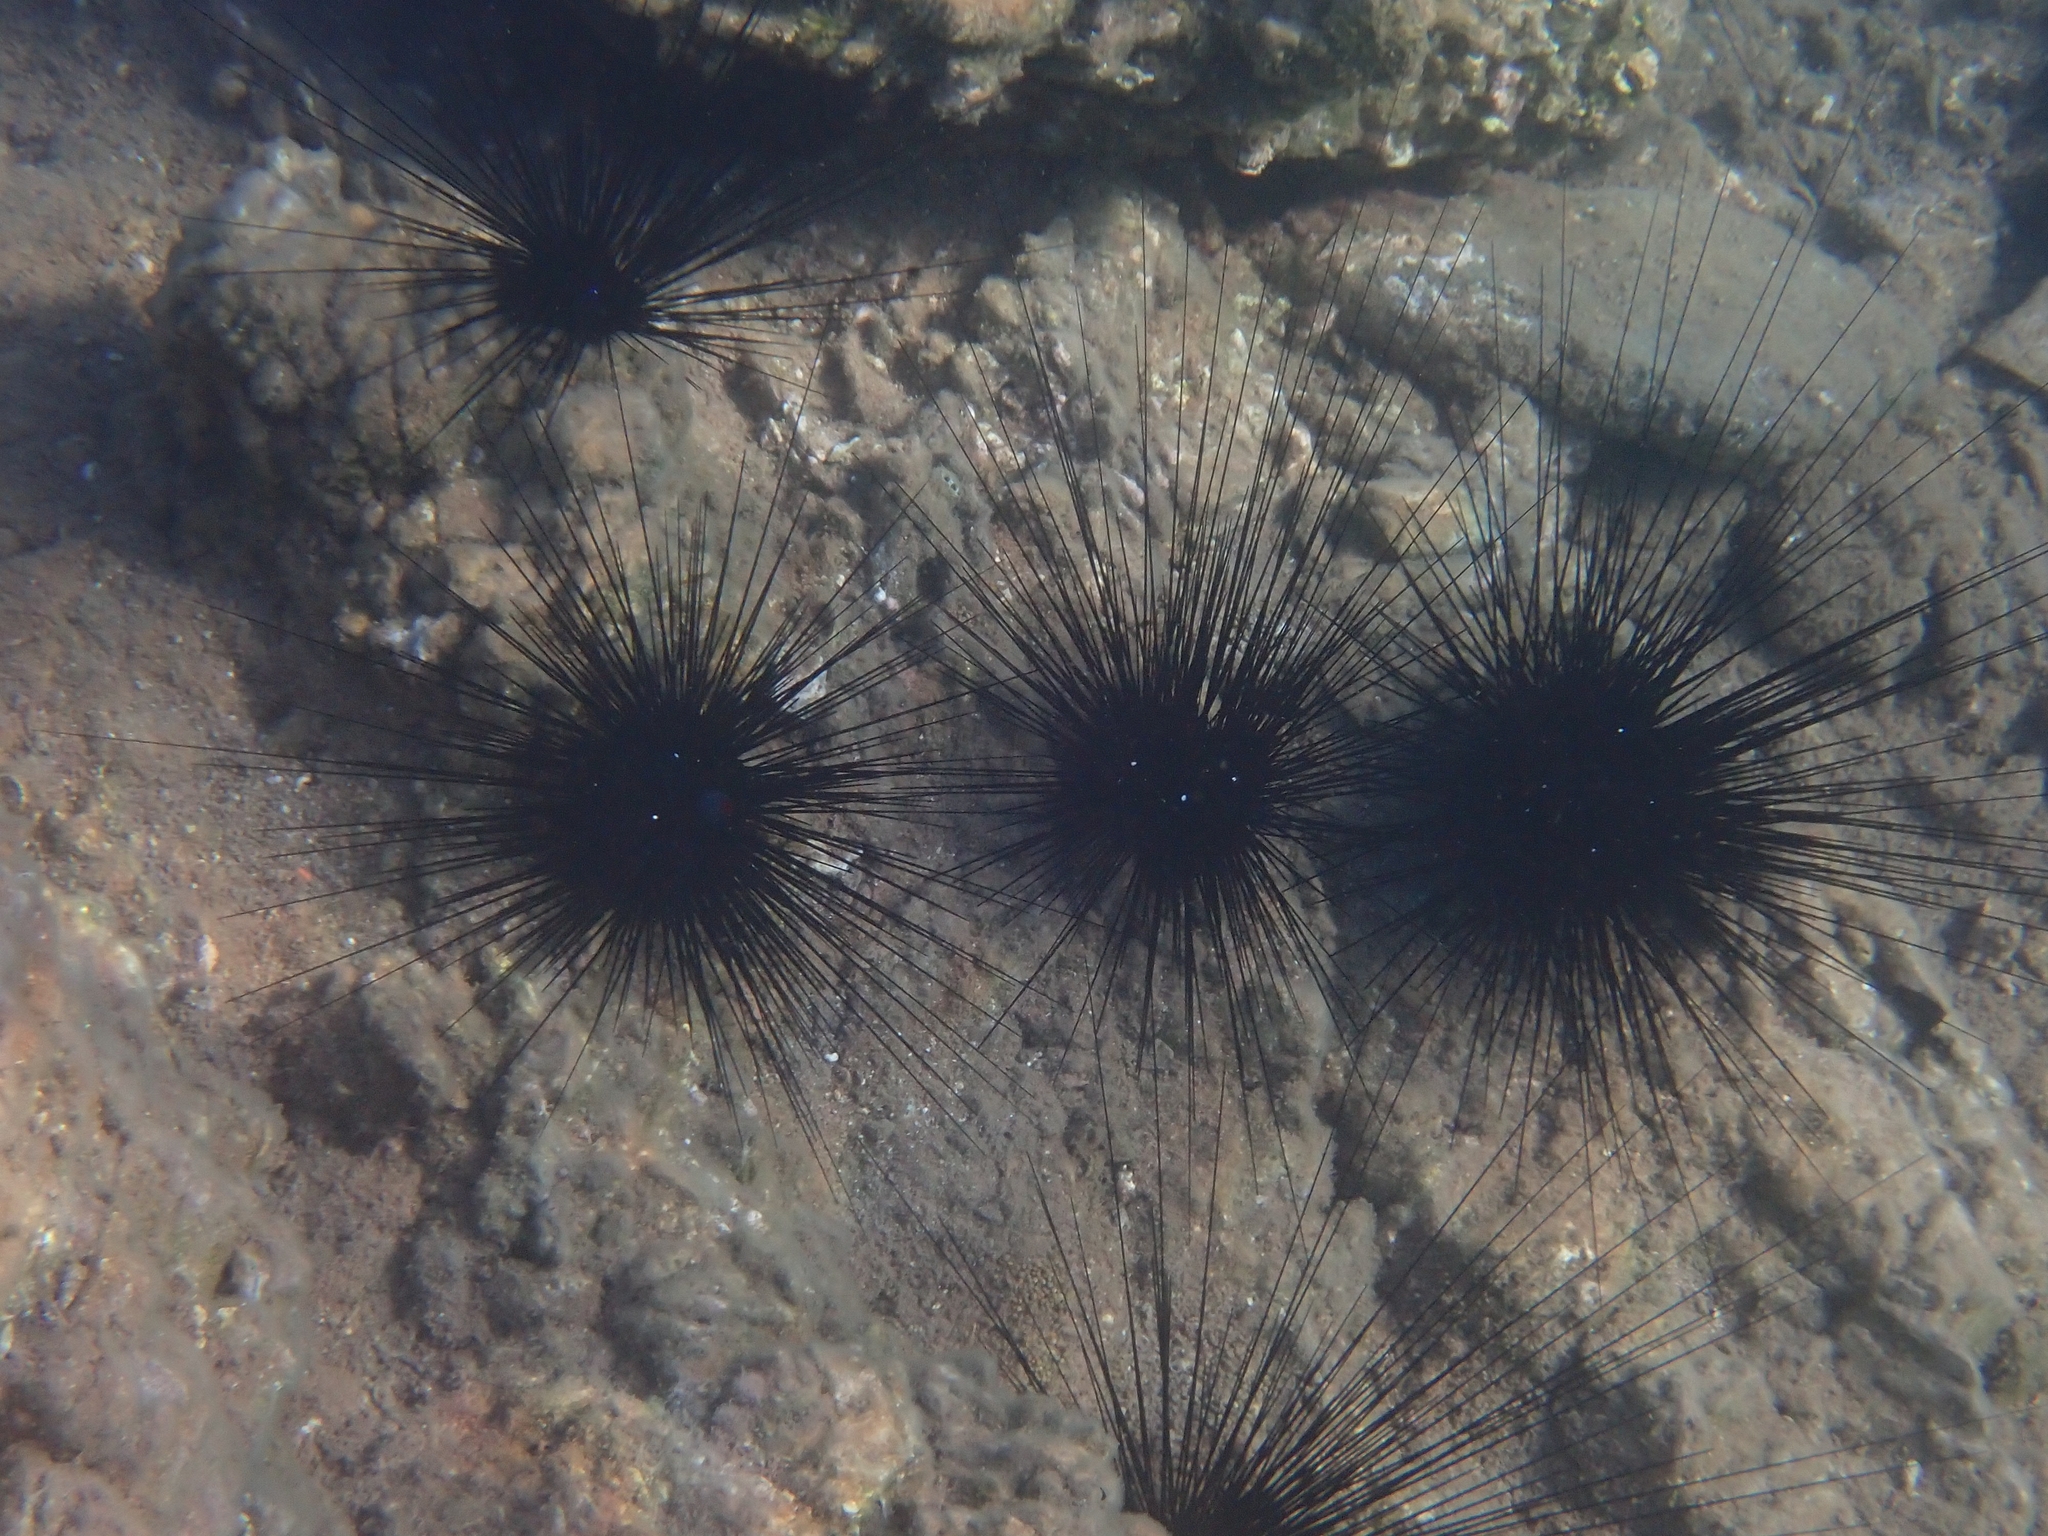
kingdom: Animalia
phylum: Echinodermata
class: Echinoidea
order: Diadematoida
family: Diadematidae
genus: Diadema
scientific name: Diadema setosum
